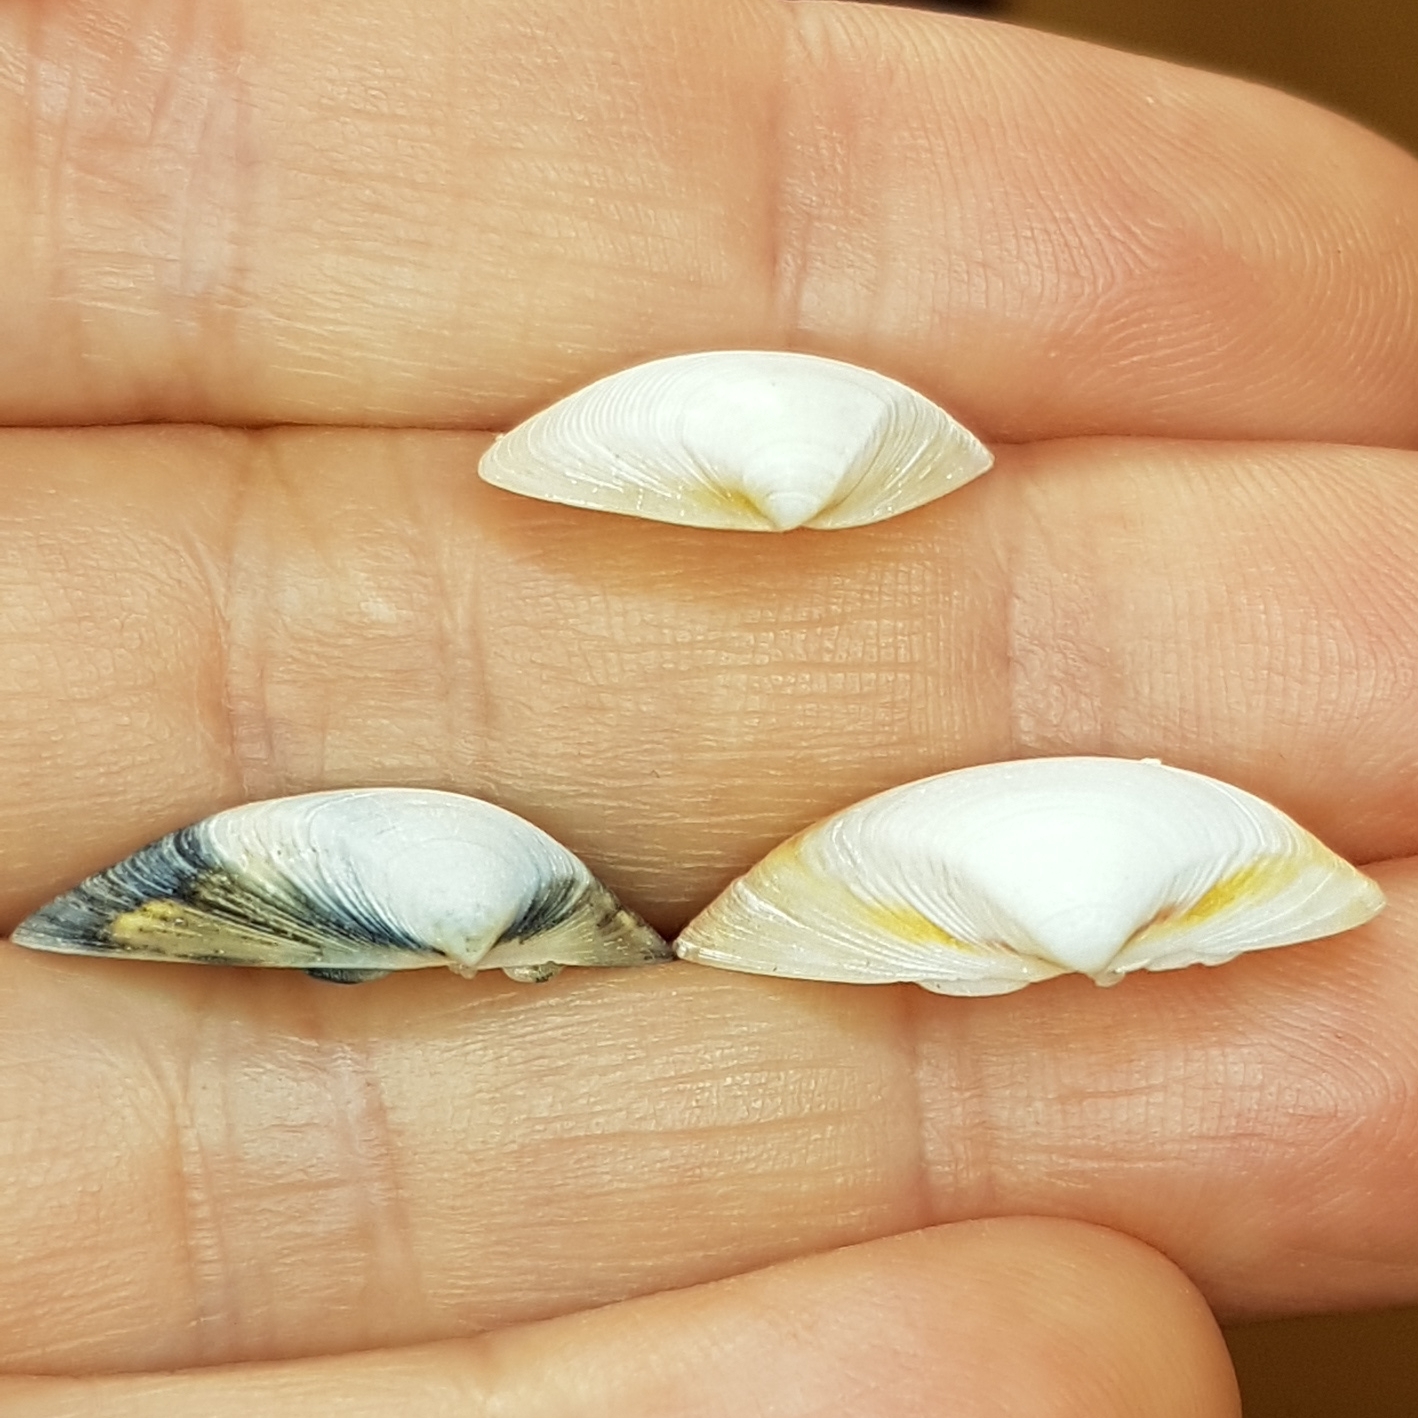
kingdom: Animalia
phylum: Mollusca
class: Bivalvia
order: Venerida
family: Mactridae
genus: Spisula
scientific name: Spisula subtruncata
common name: Cut trough shell
